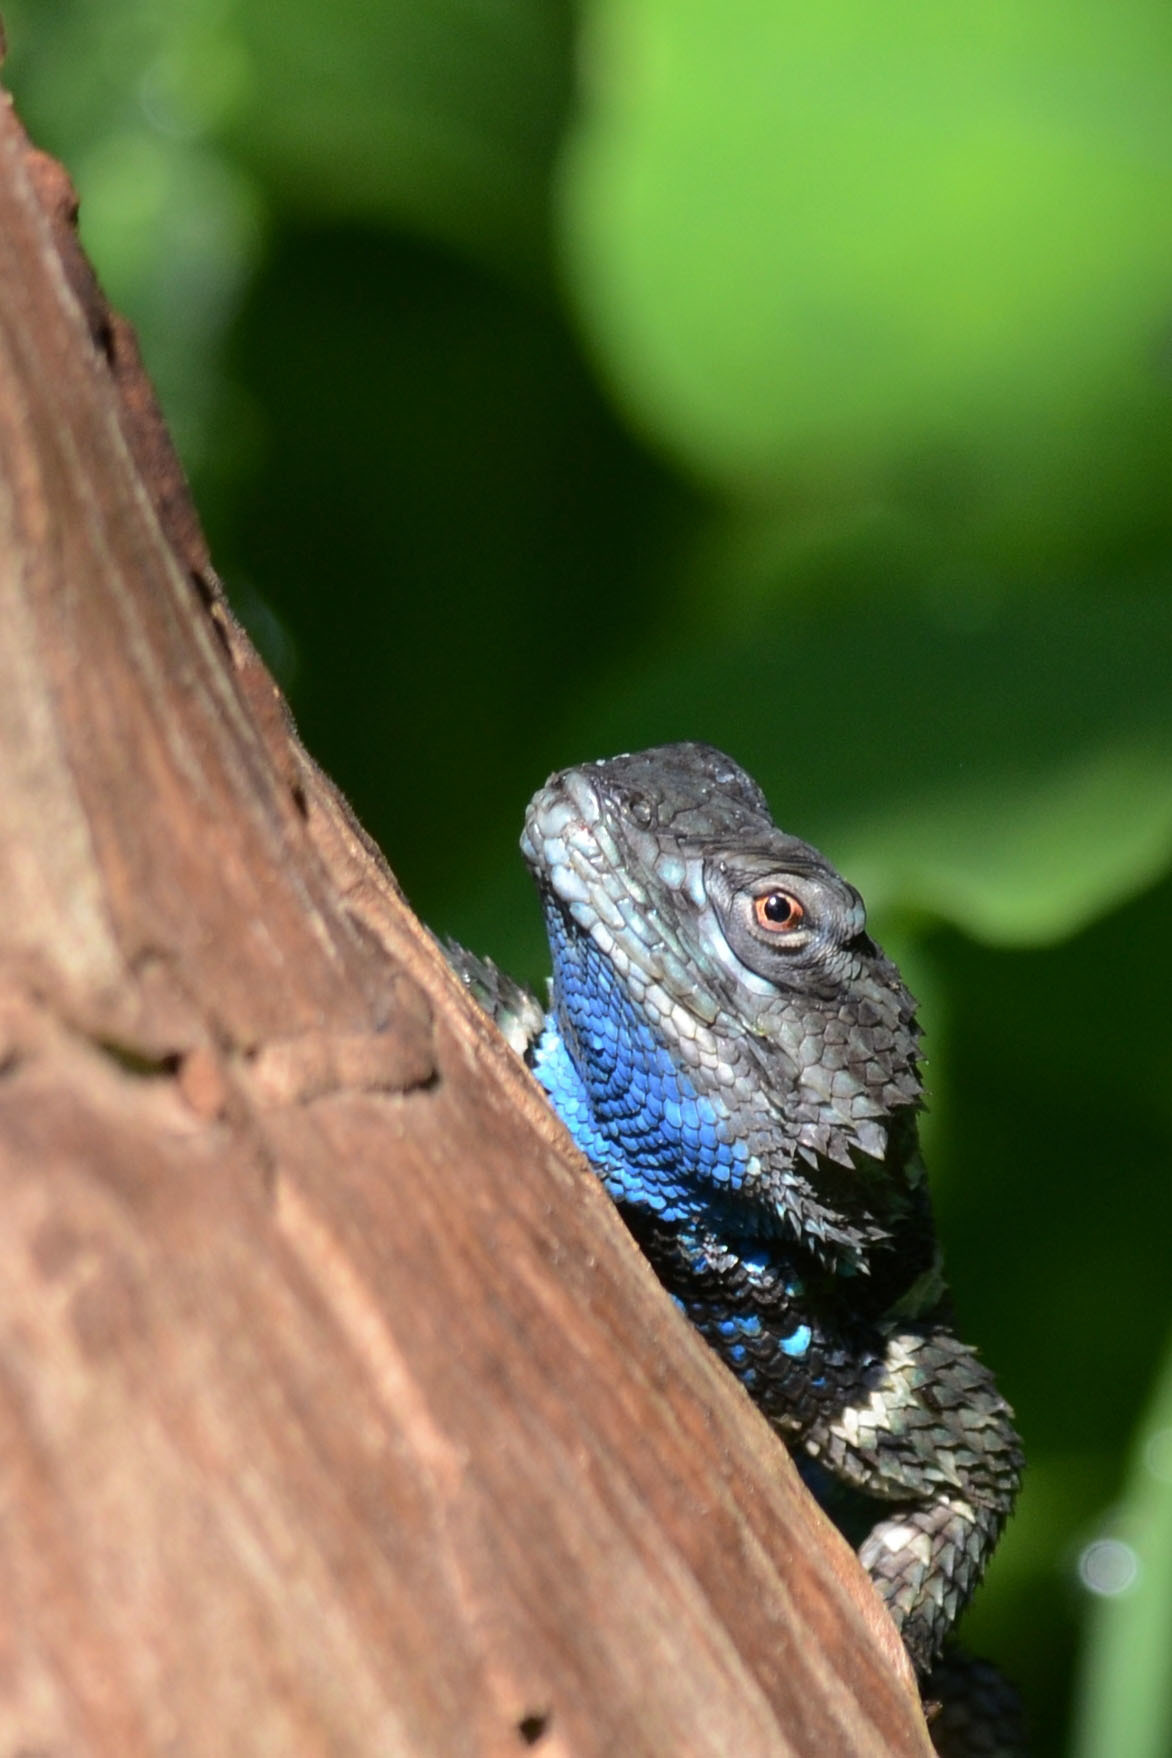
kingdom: Animalia
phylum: Chordata
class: Squamata
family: Phrynosomatidae
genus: Sceloporus
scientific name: Sceloporus torquatus
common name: Central plateau torquate lizard [melanogaster]
